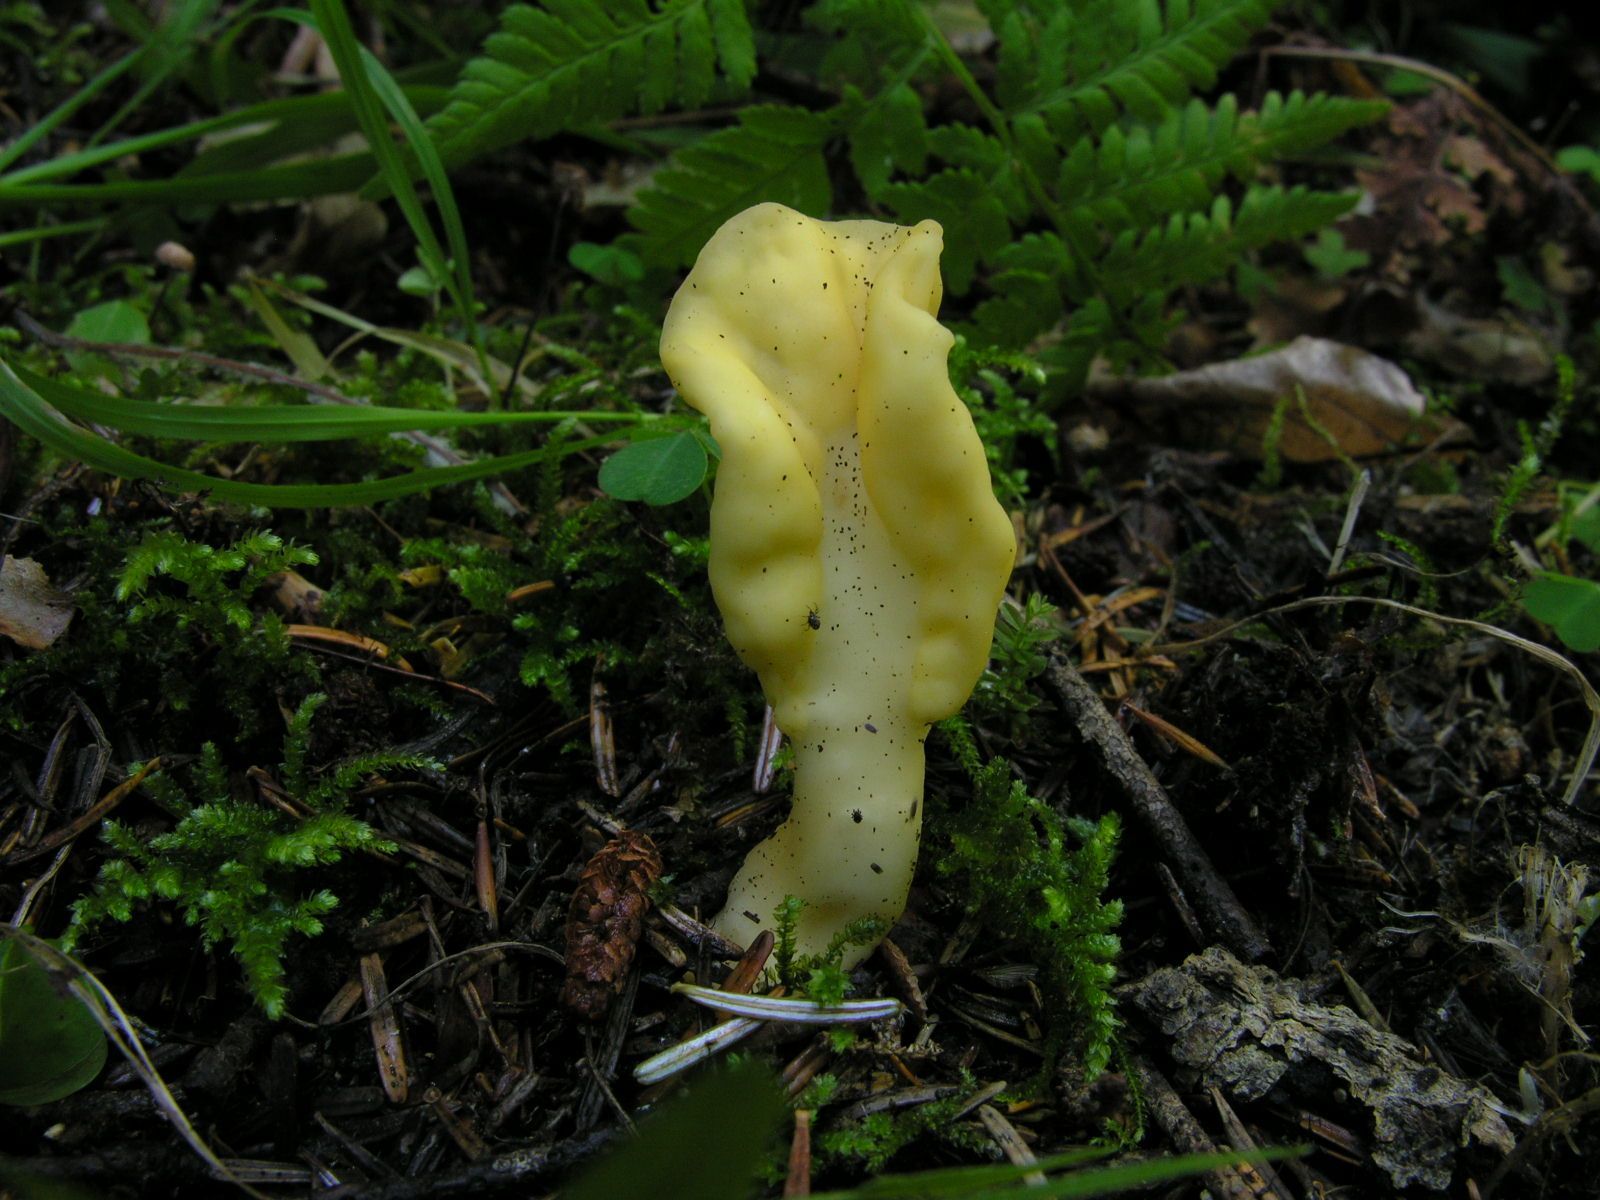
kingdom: Fungi
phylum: Ascomycota
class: Leotiomycetes
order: Rhytismatales
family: Cudoniaceae
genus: Spathularia
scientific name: Spathularia flavida
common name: Yellow fan
